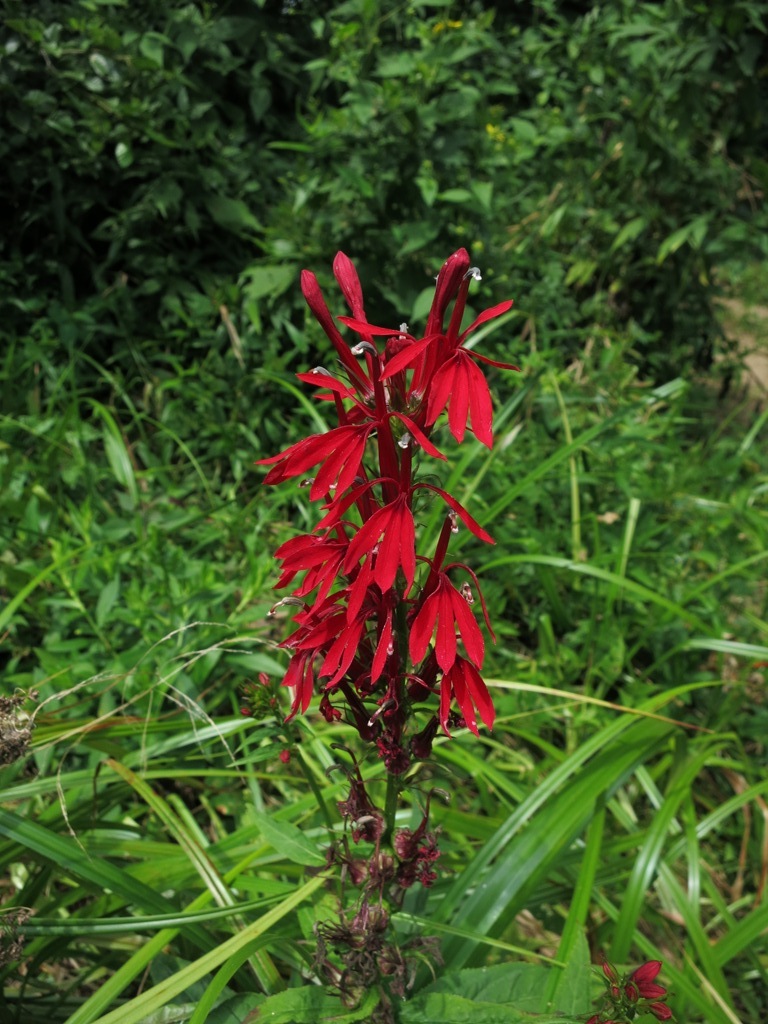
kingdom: Plantae
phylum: Tracheophyta
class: Magnoliopsida
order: Asterales
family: Campanulaceae
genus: Lobelia
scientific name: Lobelia cardinalis
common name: Cardinal flower
